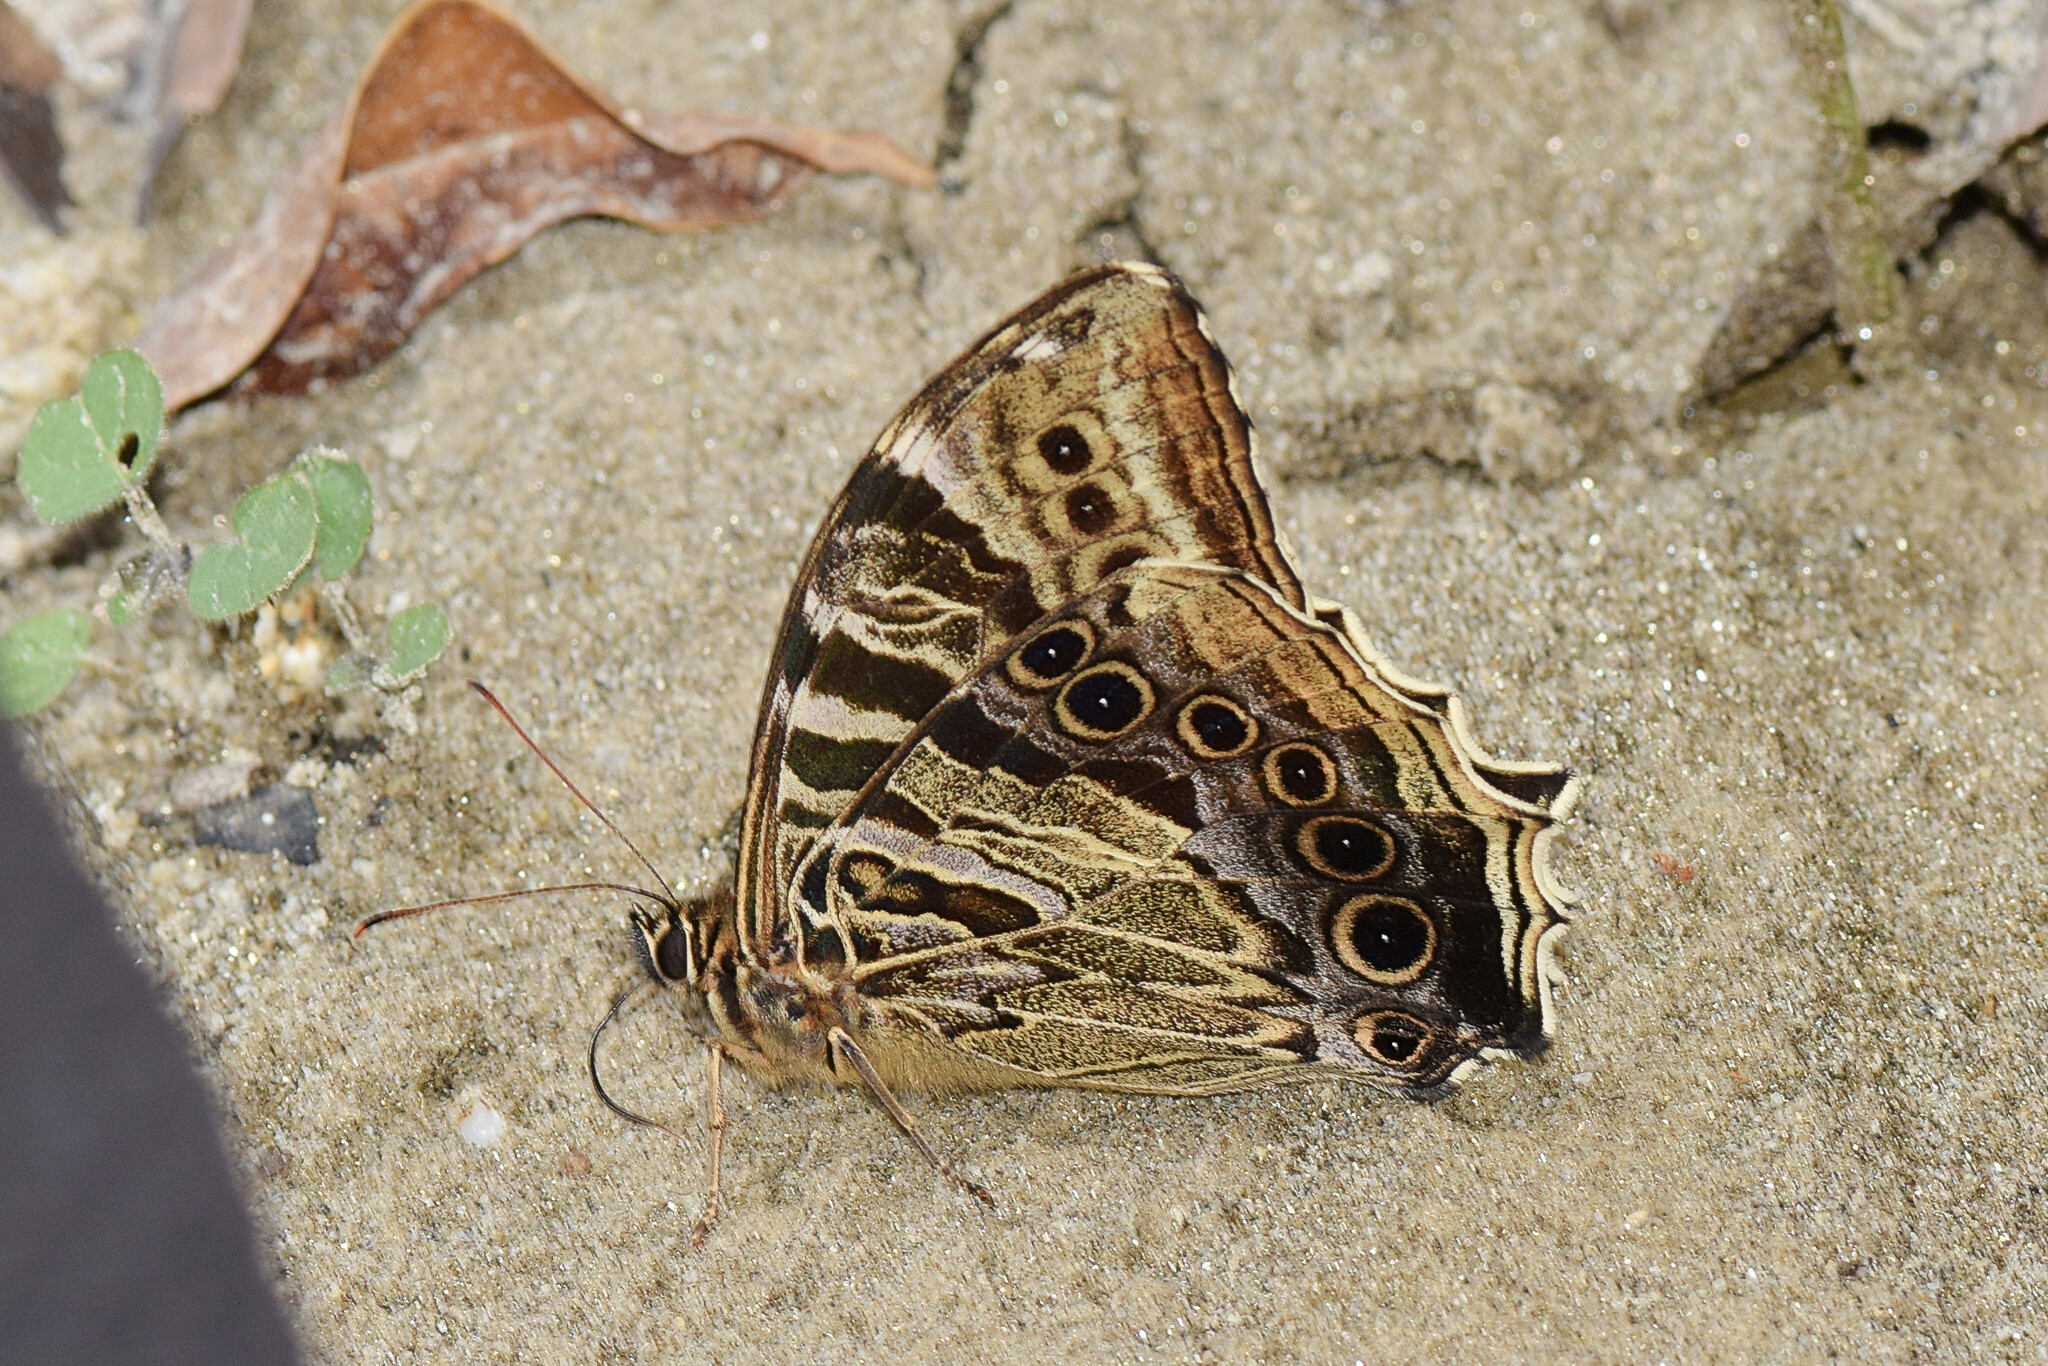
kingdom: Animalia
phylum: Arthropoda
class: Insecta
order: Lepidoptera
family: Nymphalidae
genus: Neope
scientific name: Neope yama
